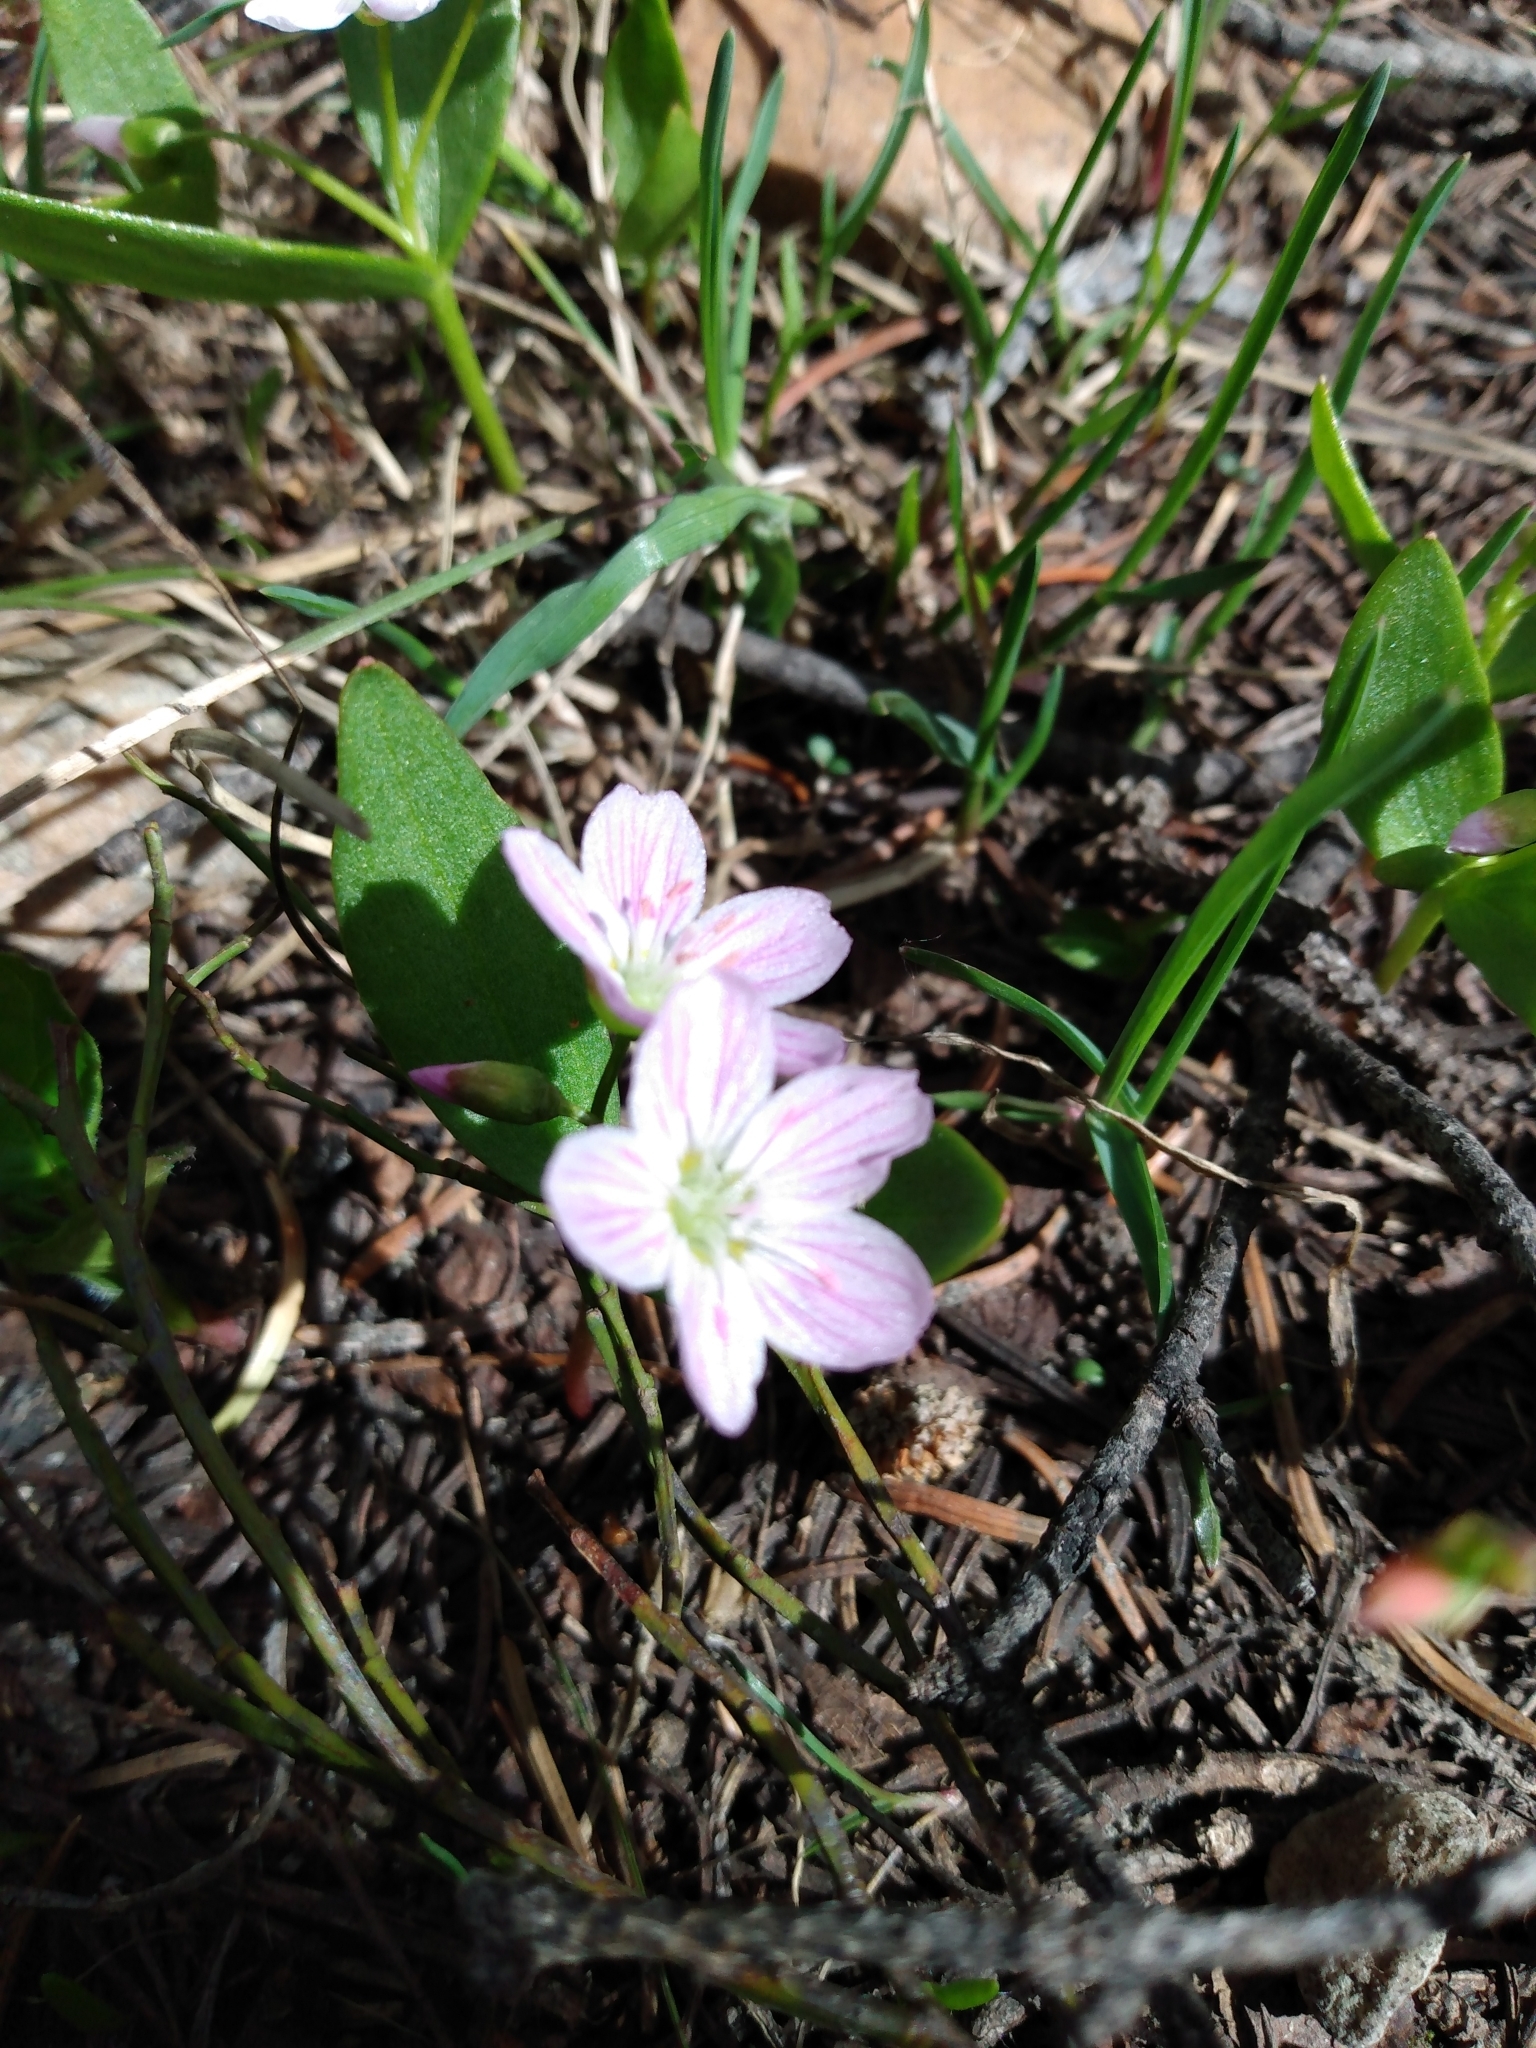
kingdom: Plantae
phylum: Tracheophyta
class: Magnoliopsida
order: Caryophyllales
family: Montiaceae
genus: Claytonia
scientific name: Claytonia lanceolata
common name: Western spring-beauty
